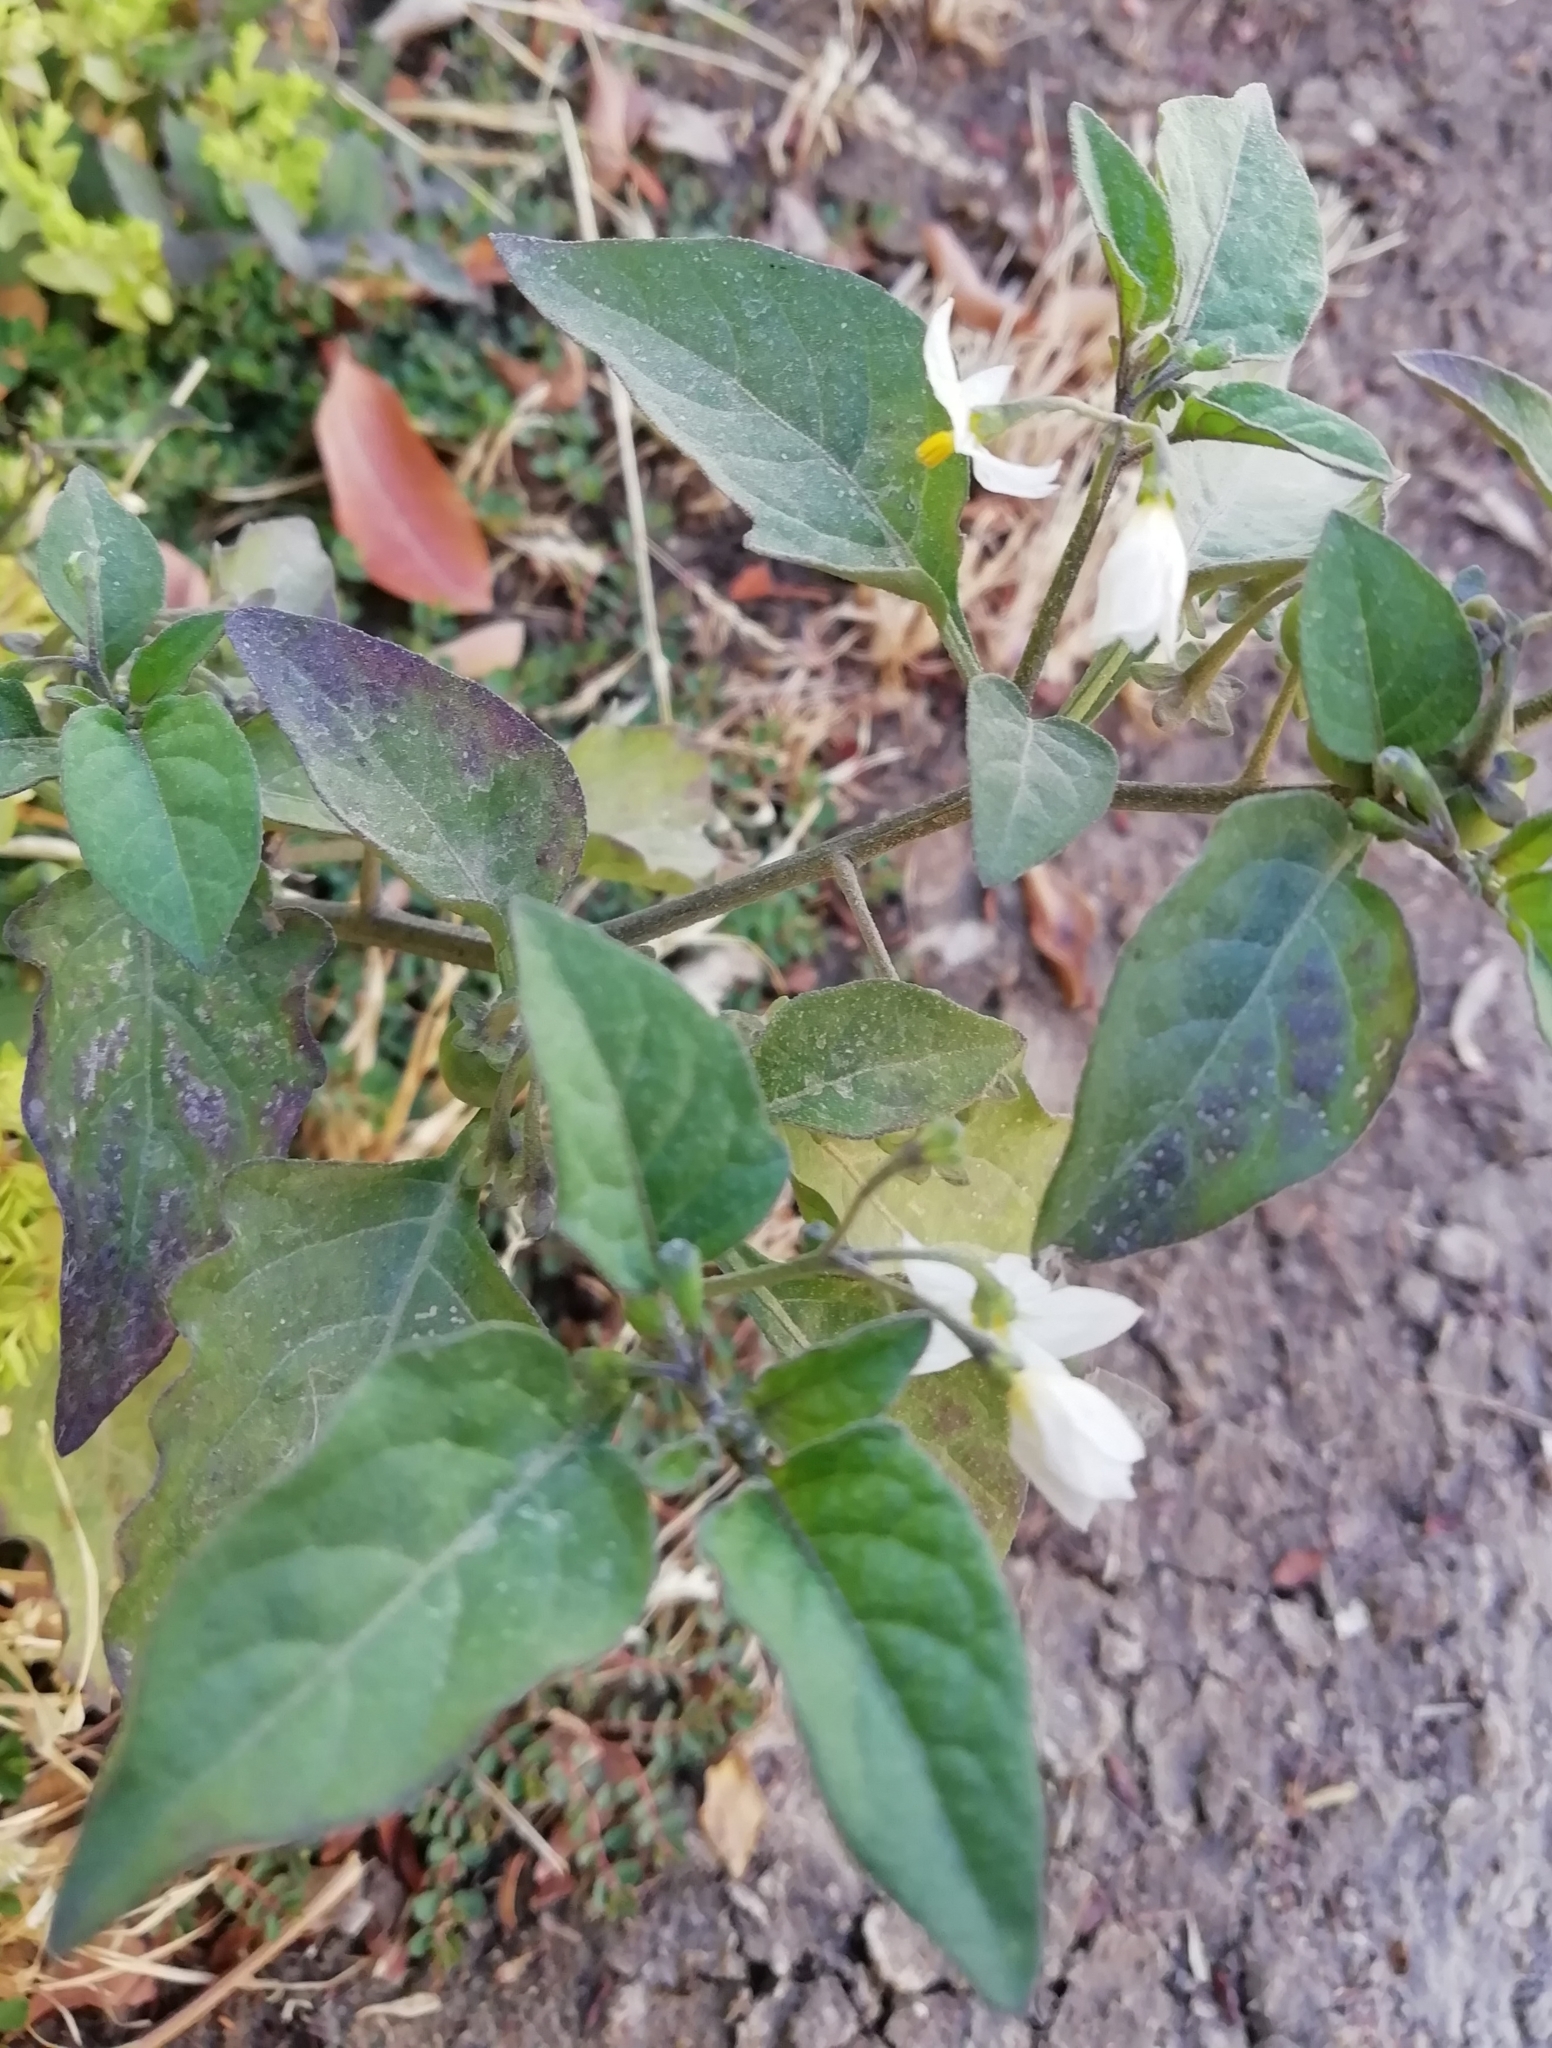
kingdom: Plantae
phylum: Tracheophyta
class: Magnoliopsida
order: Solanales
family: Solanaceae
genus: Solanum
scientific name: Solanum nigrum
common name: Black nightshade
